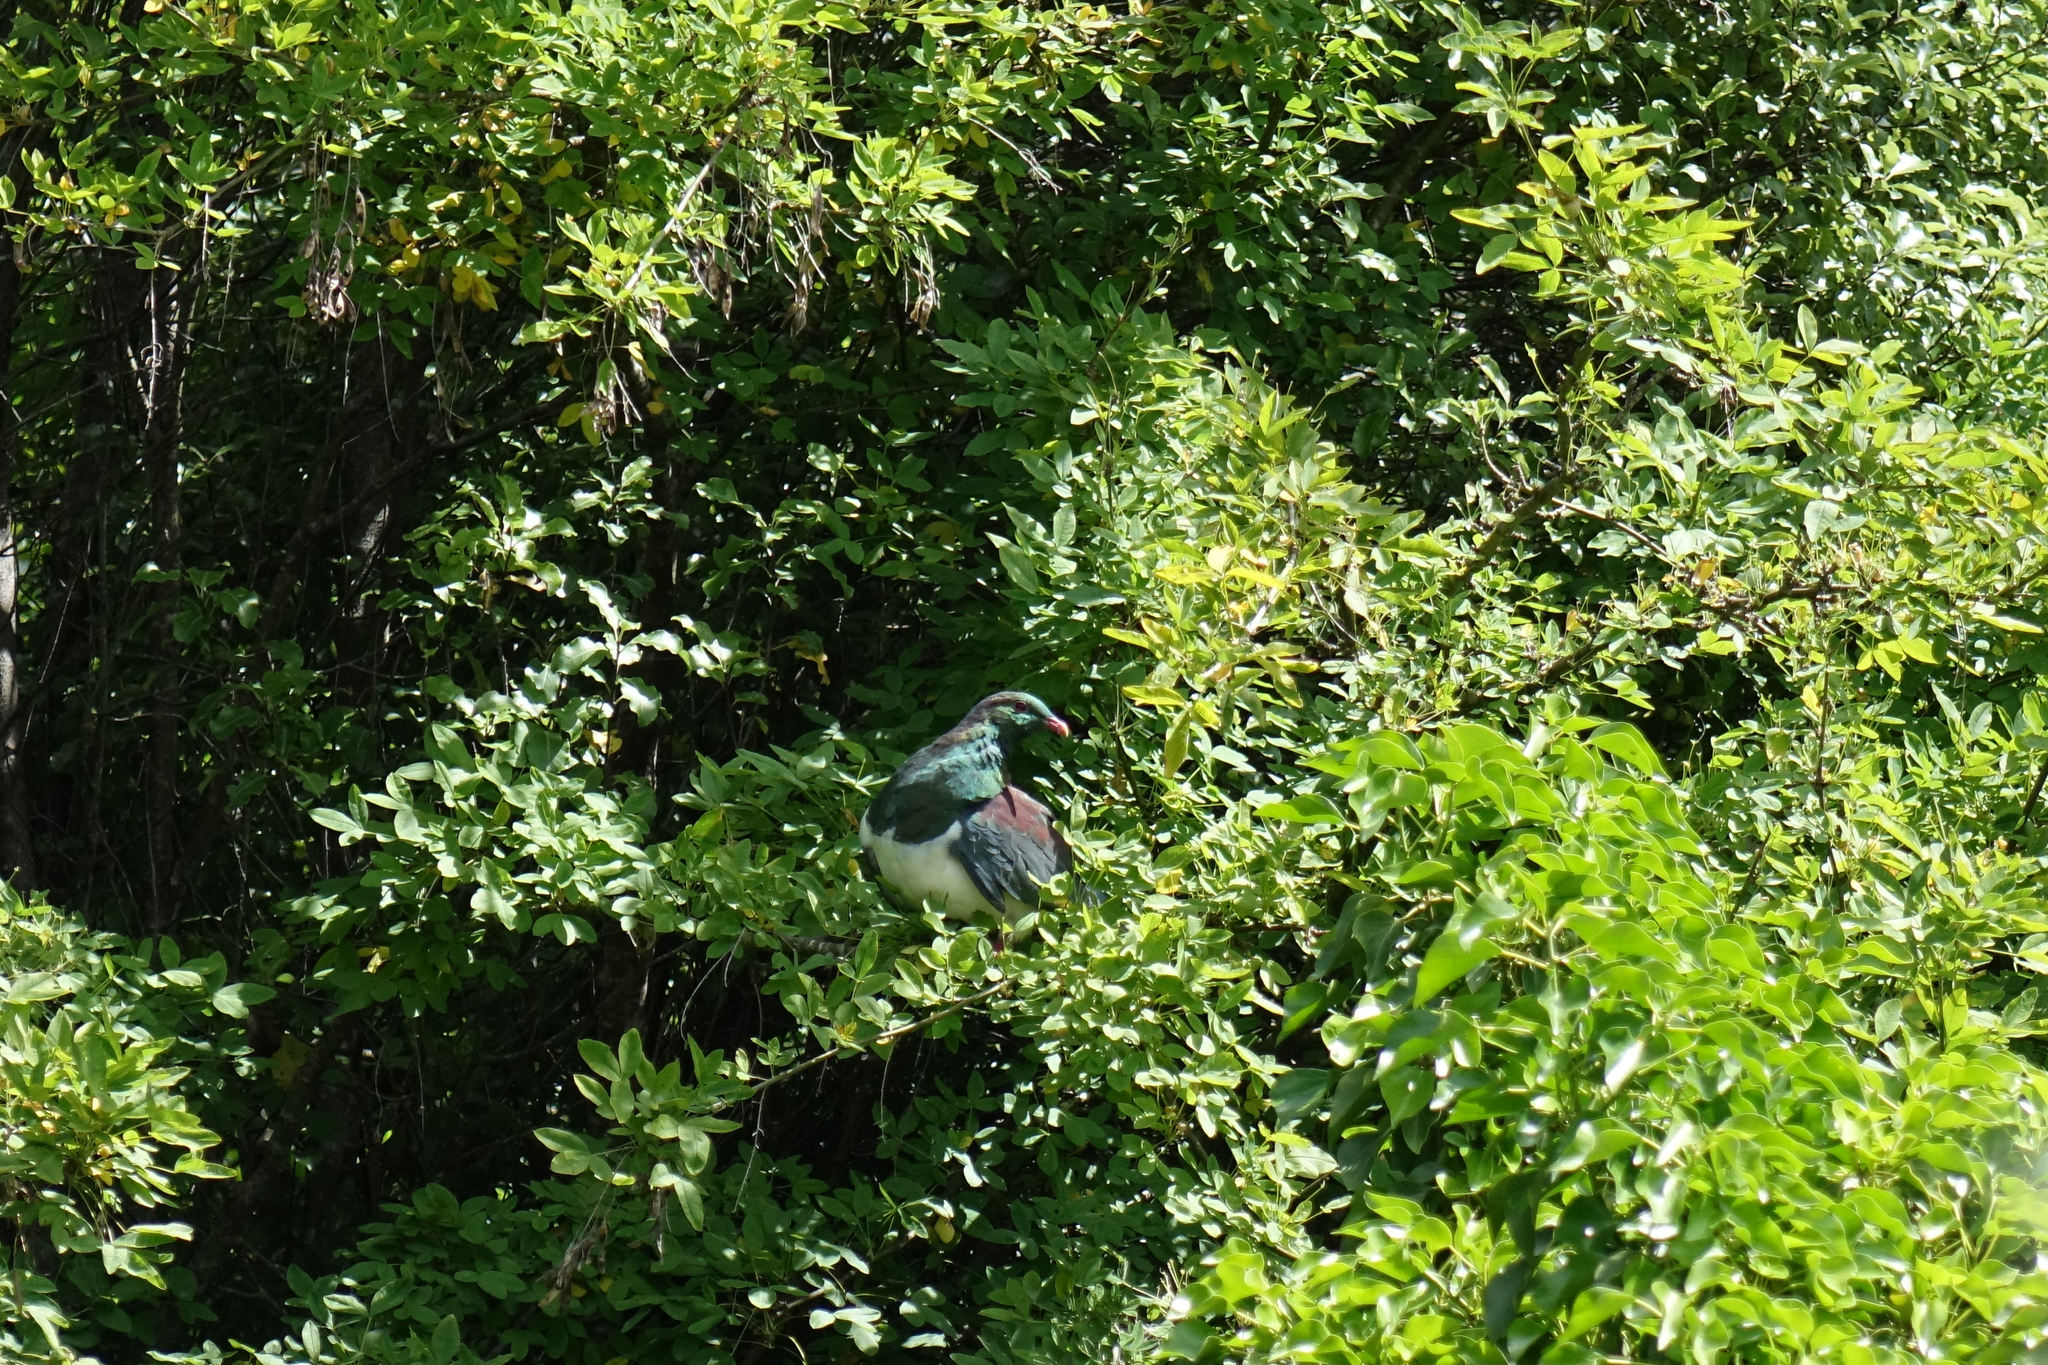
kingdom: Animalia
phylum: Chordata
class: Aves
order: Columbiformes
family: Columbidae
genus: Hemiphaga
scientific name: Hemiphaga novaeseelandiae
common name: New zealand pigeon
